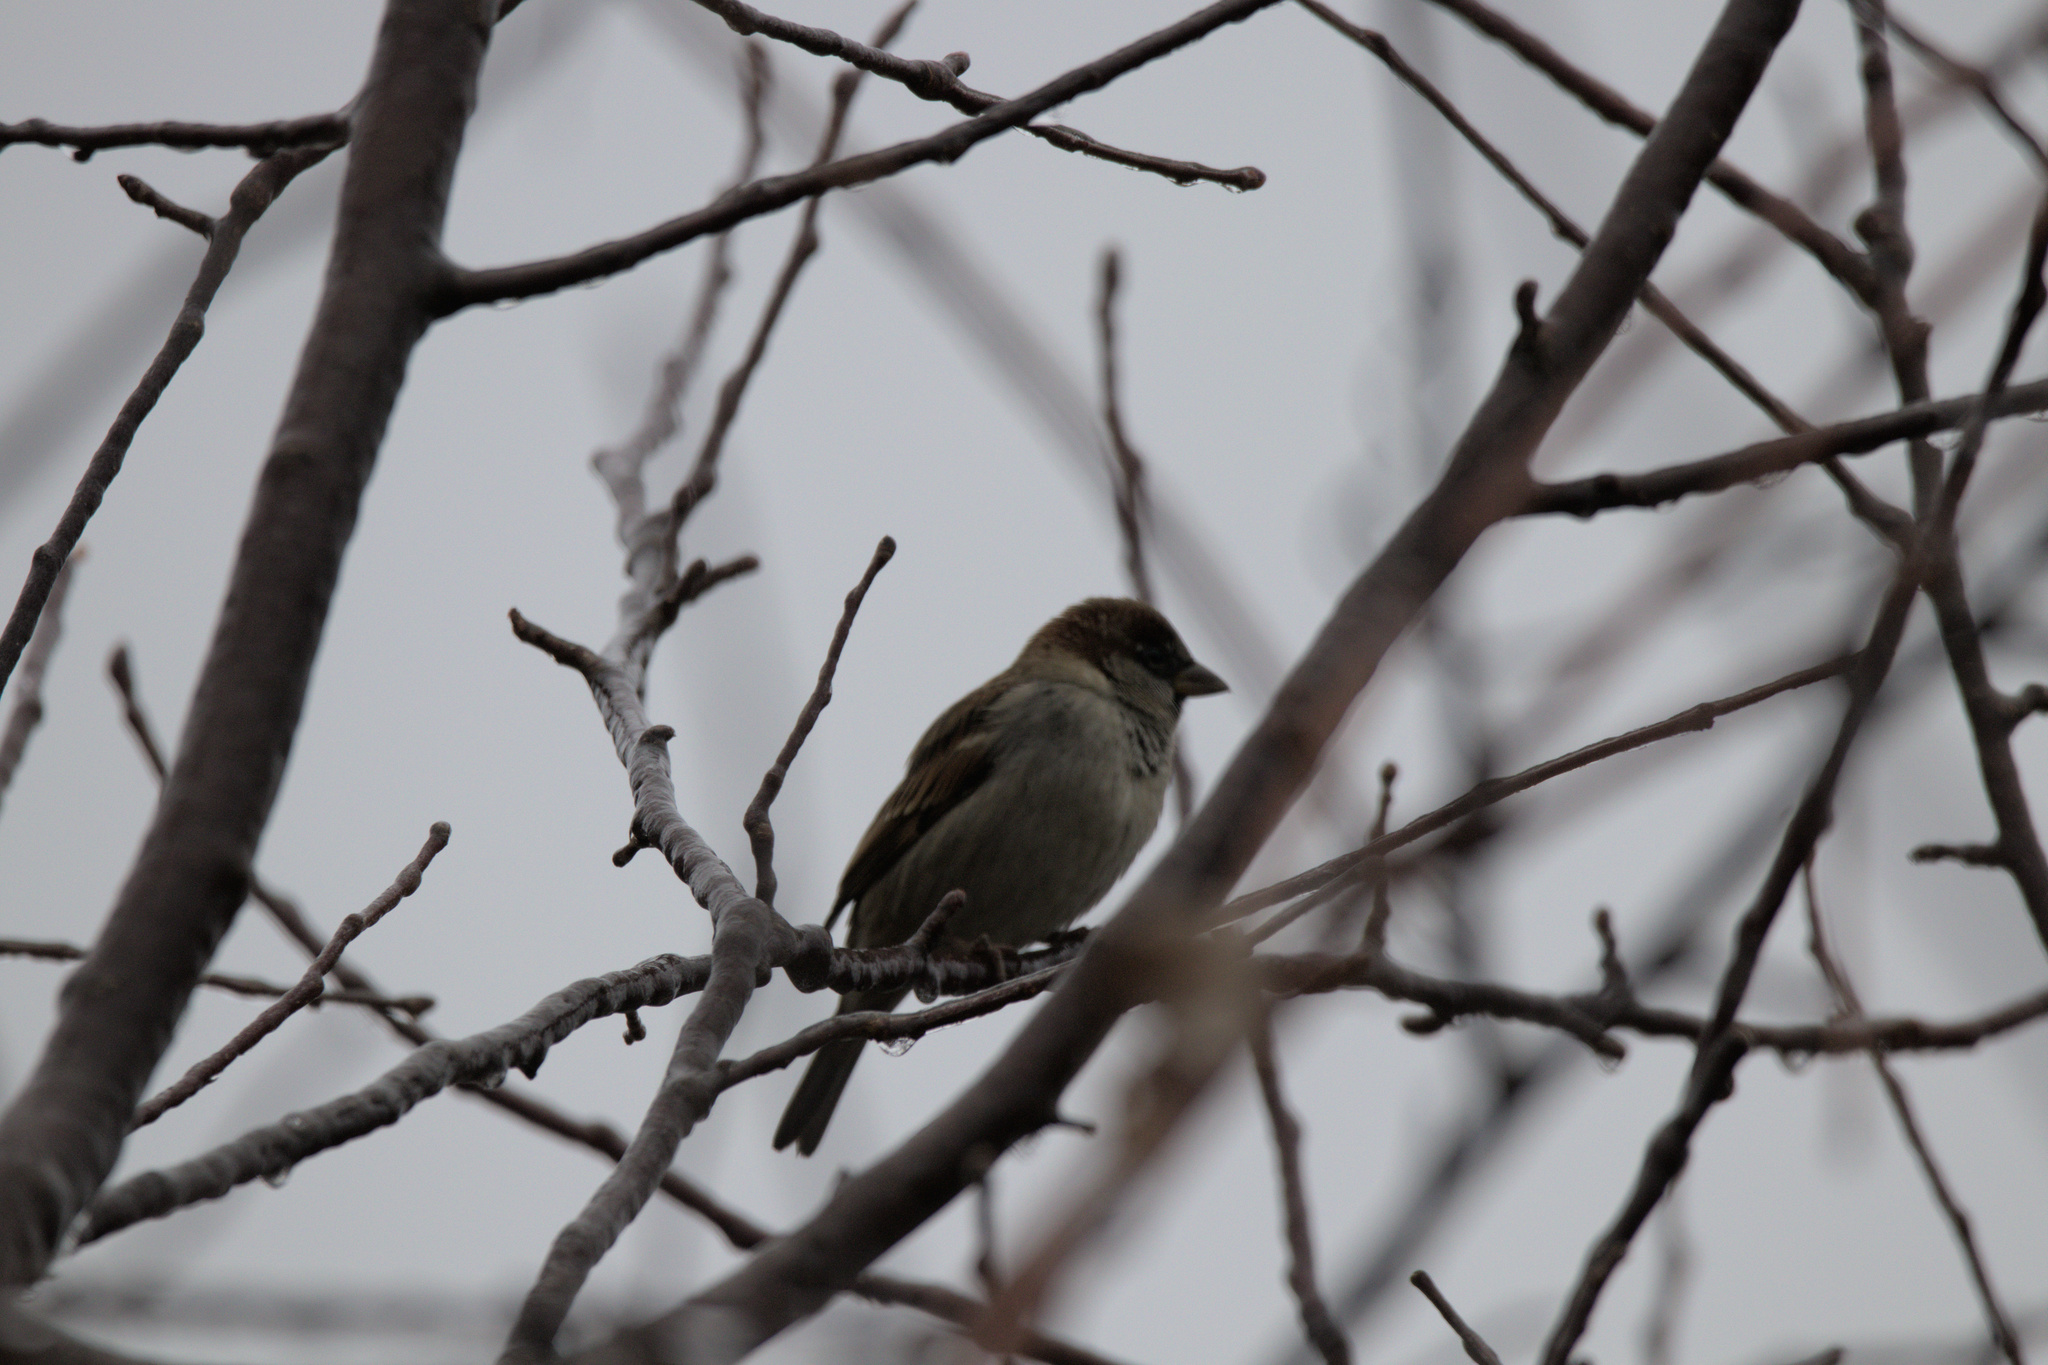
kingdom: Animalia
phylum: Chordata
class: Aves
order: Passeriformes
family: Passeridae
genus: Passer
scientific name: Passer domesticus
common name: House sparrow
